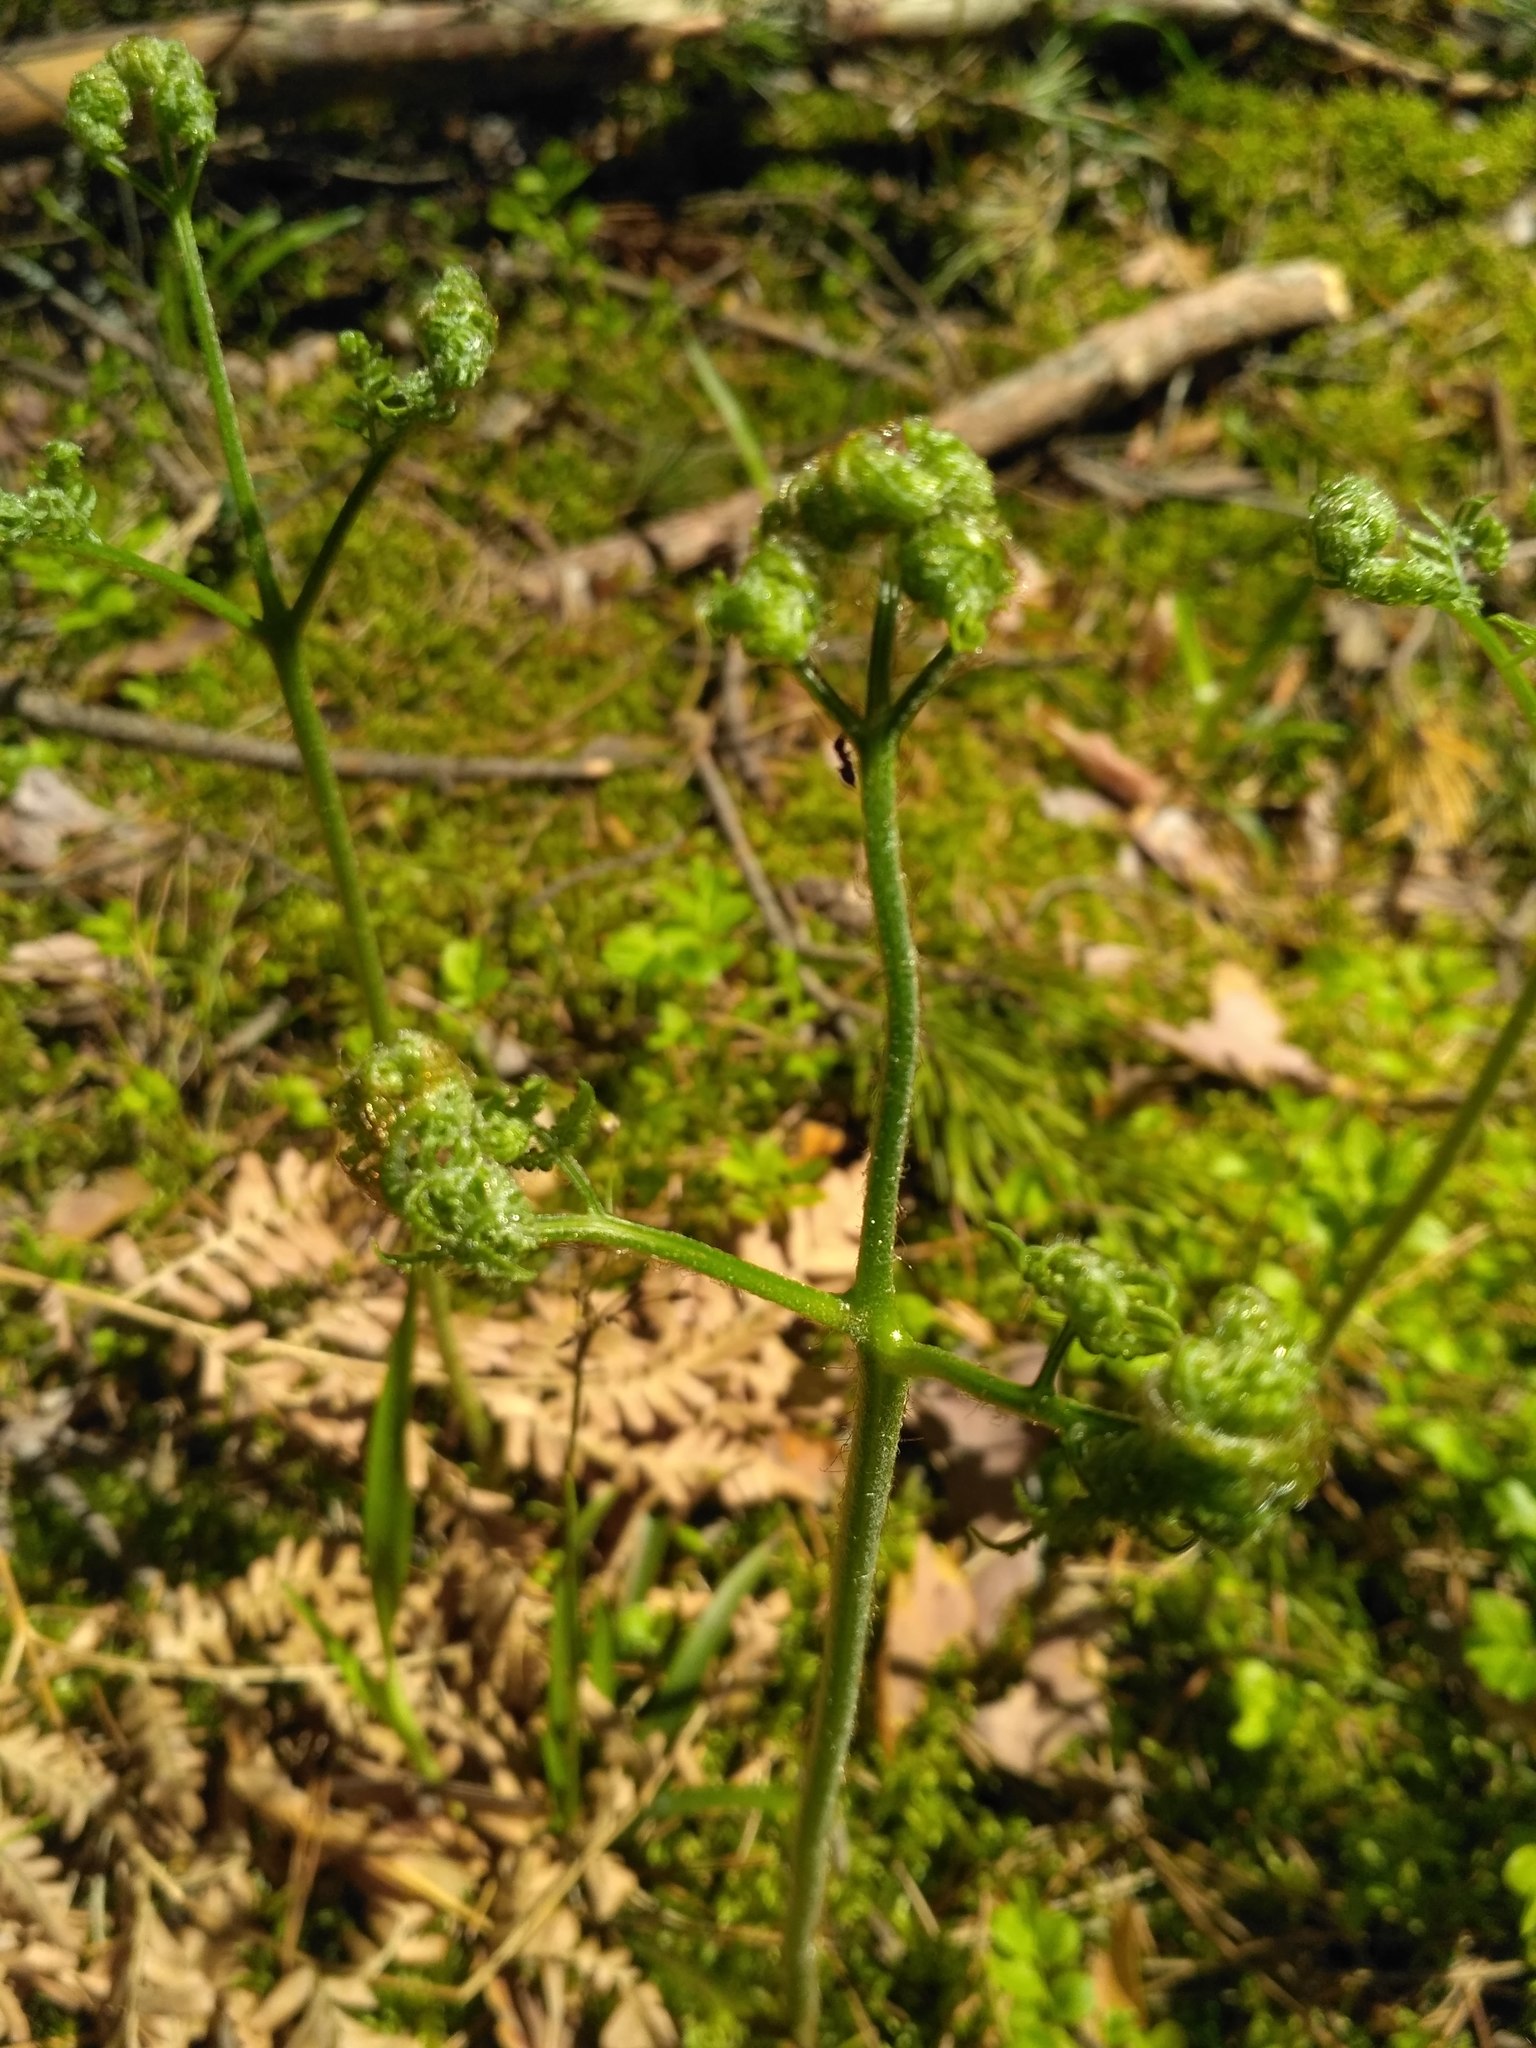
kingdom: Plantae
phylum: Tracheophyta
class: Polypodiopsida
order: Polypodiales
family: Dennstaedtiaceae
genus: Pteridium
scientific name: Pteridium aquilinum
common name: Bracken
